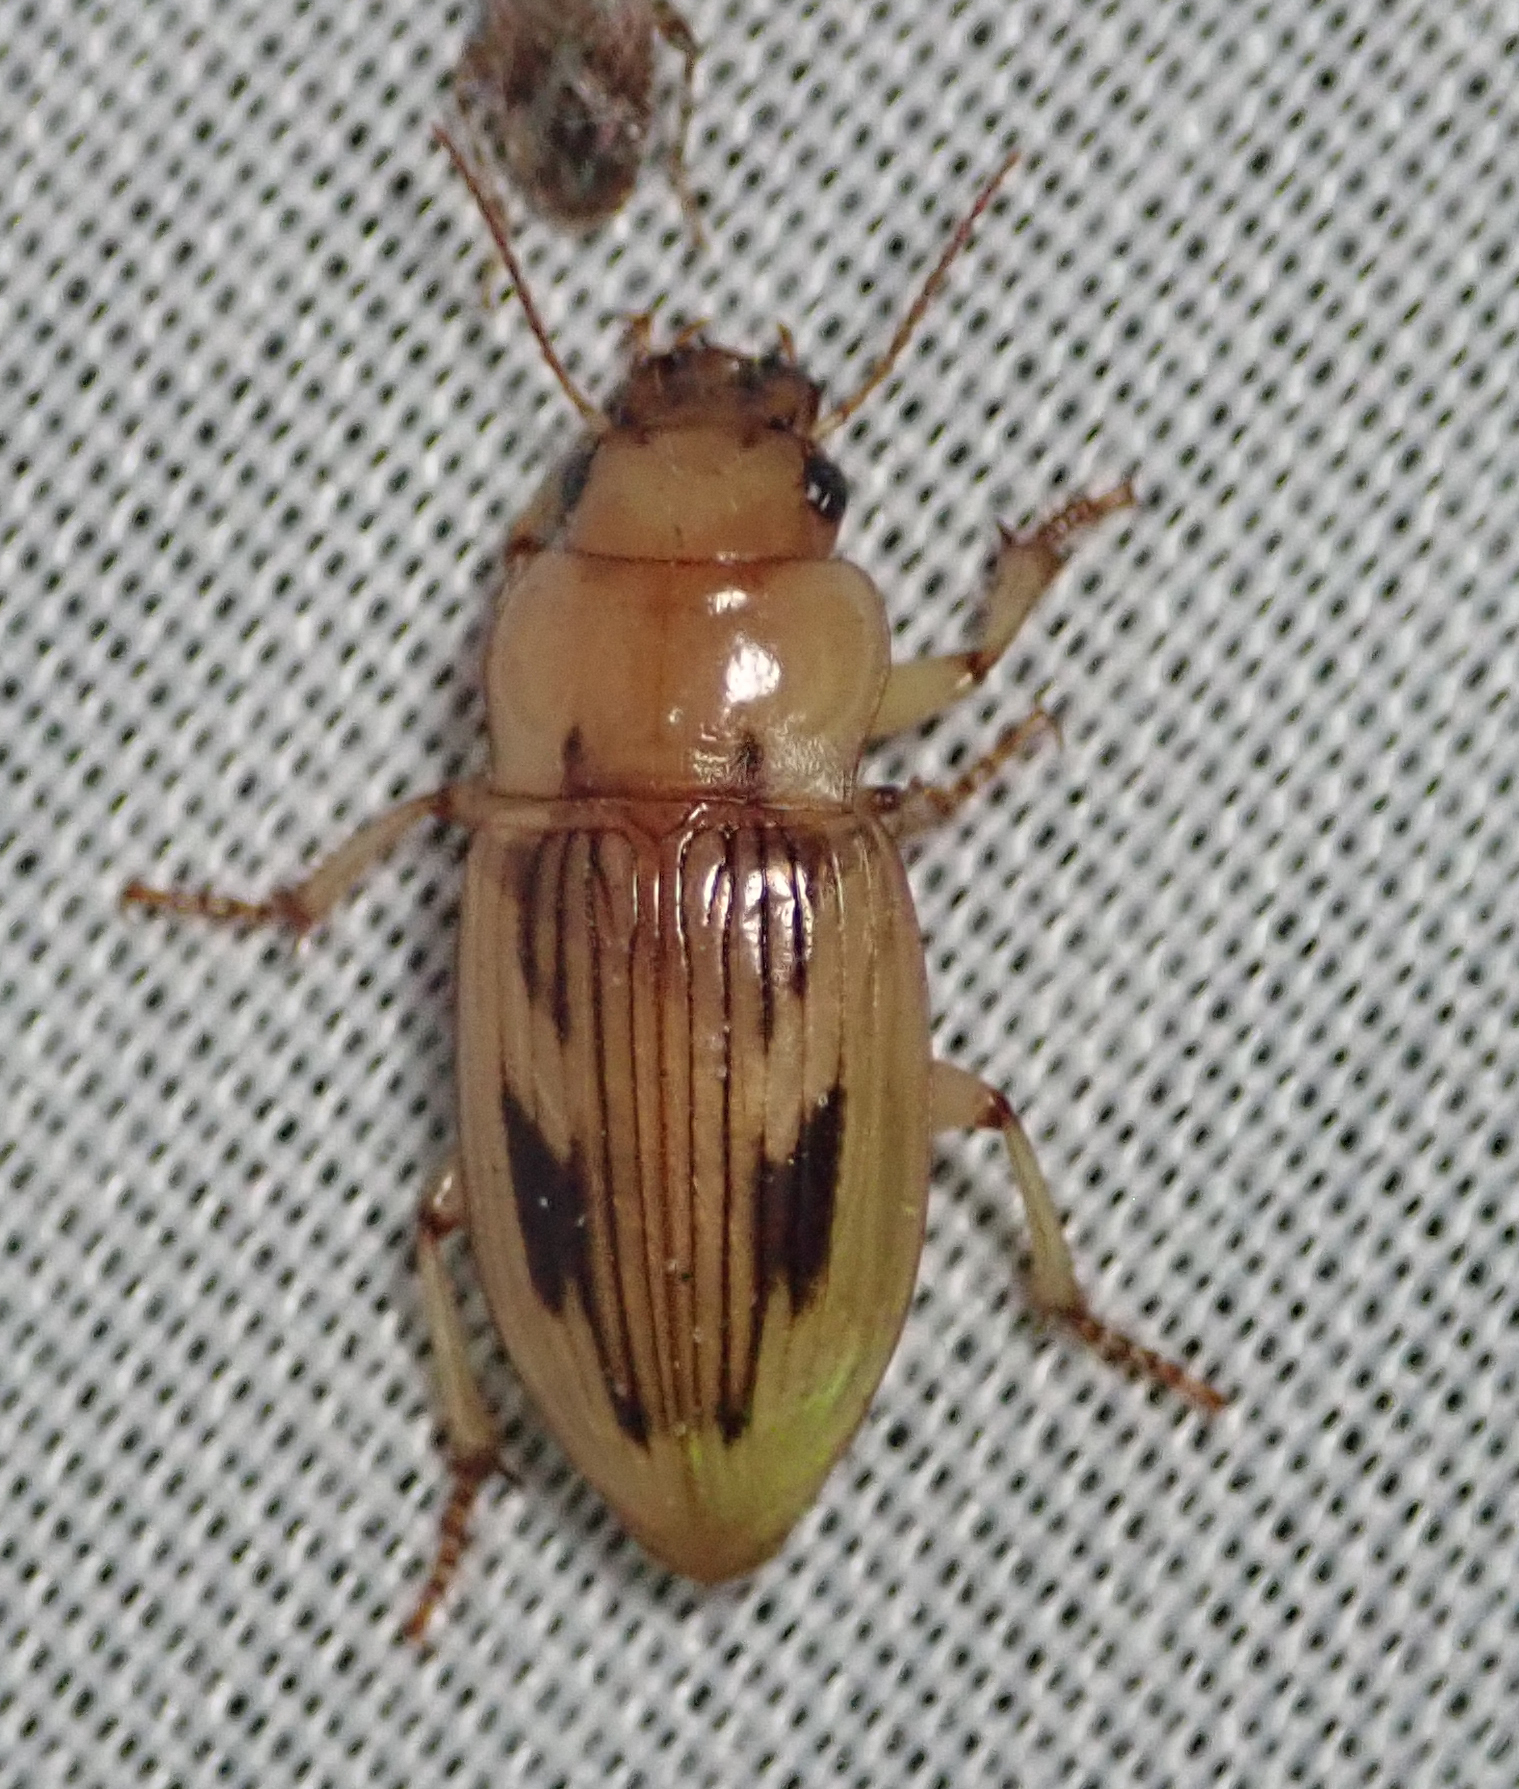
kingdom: Animalia
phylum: Arthropoda
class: Insecta
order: Coleoptera
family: Carabidae
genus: Bradybaenus
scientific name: Bradybaenus opulentus
